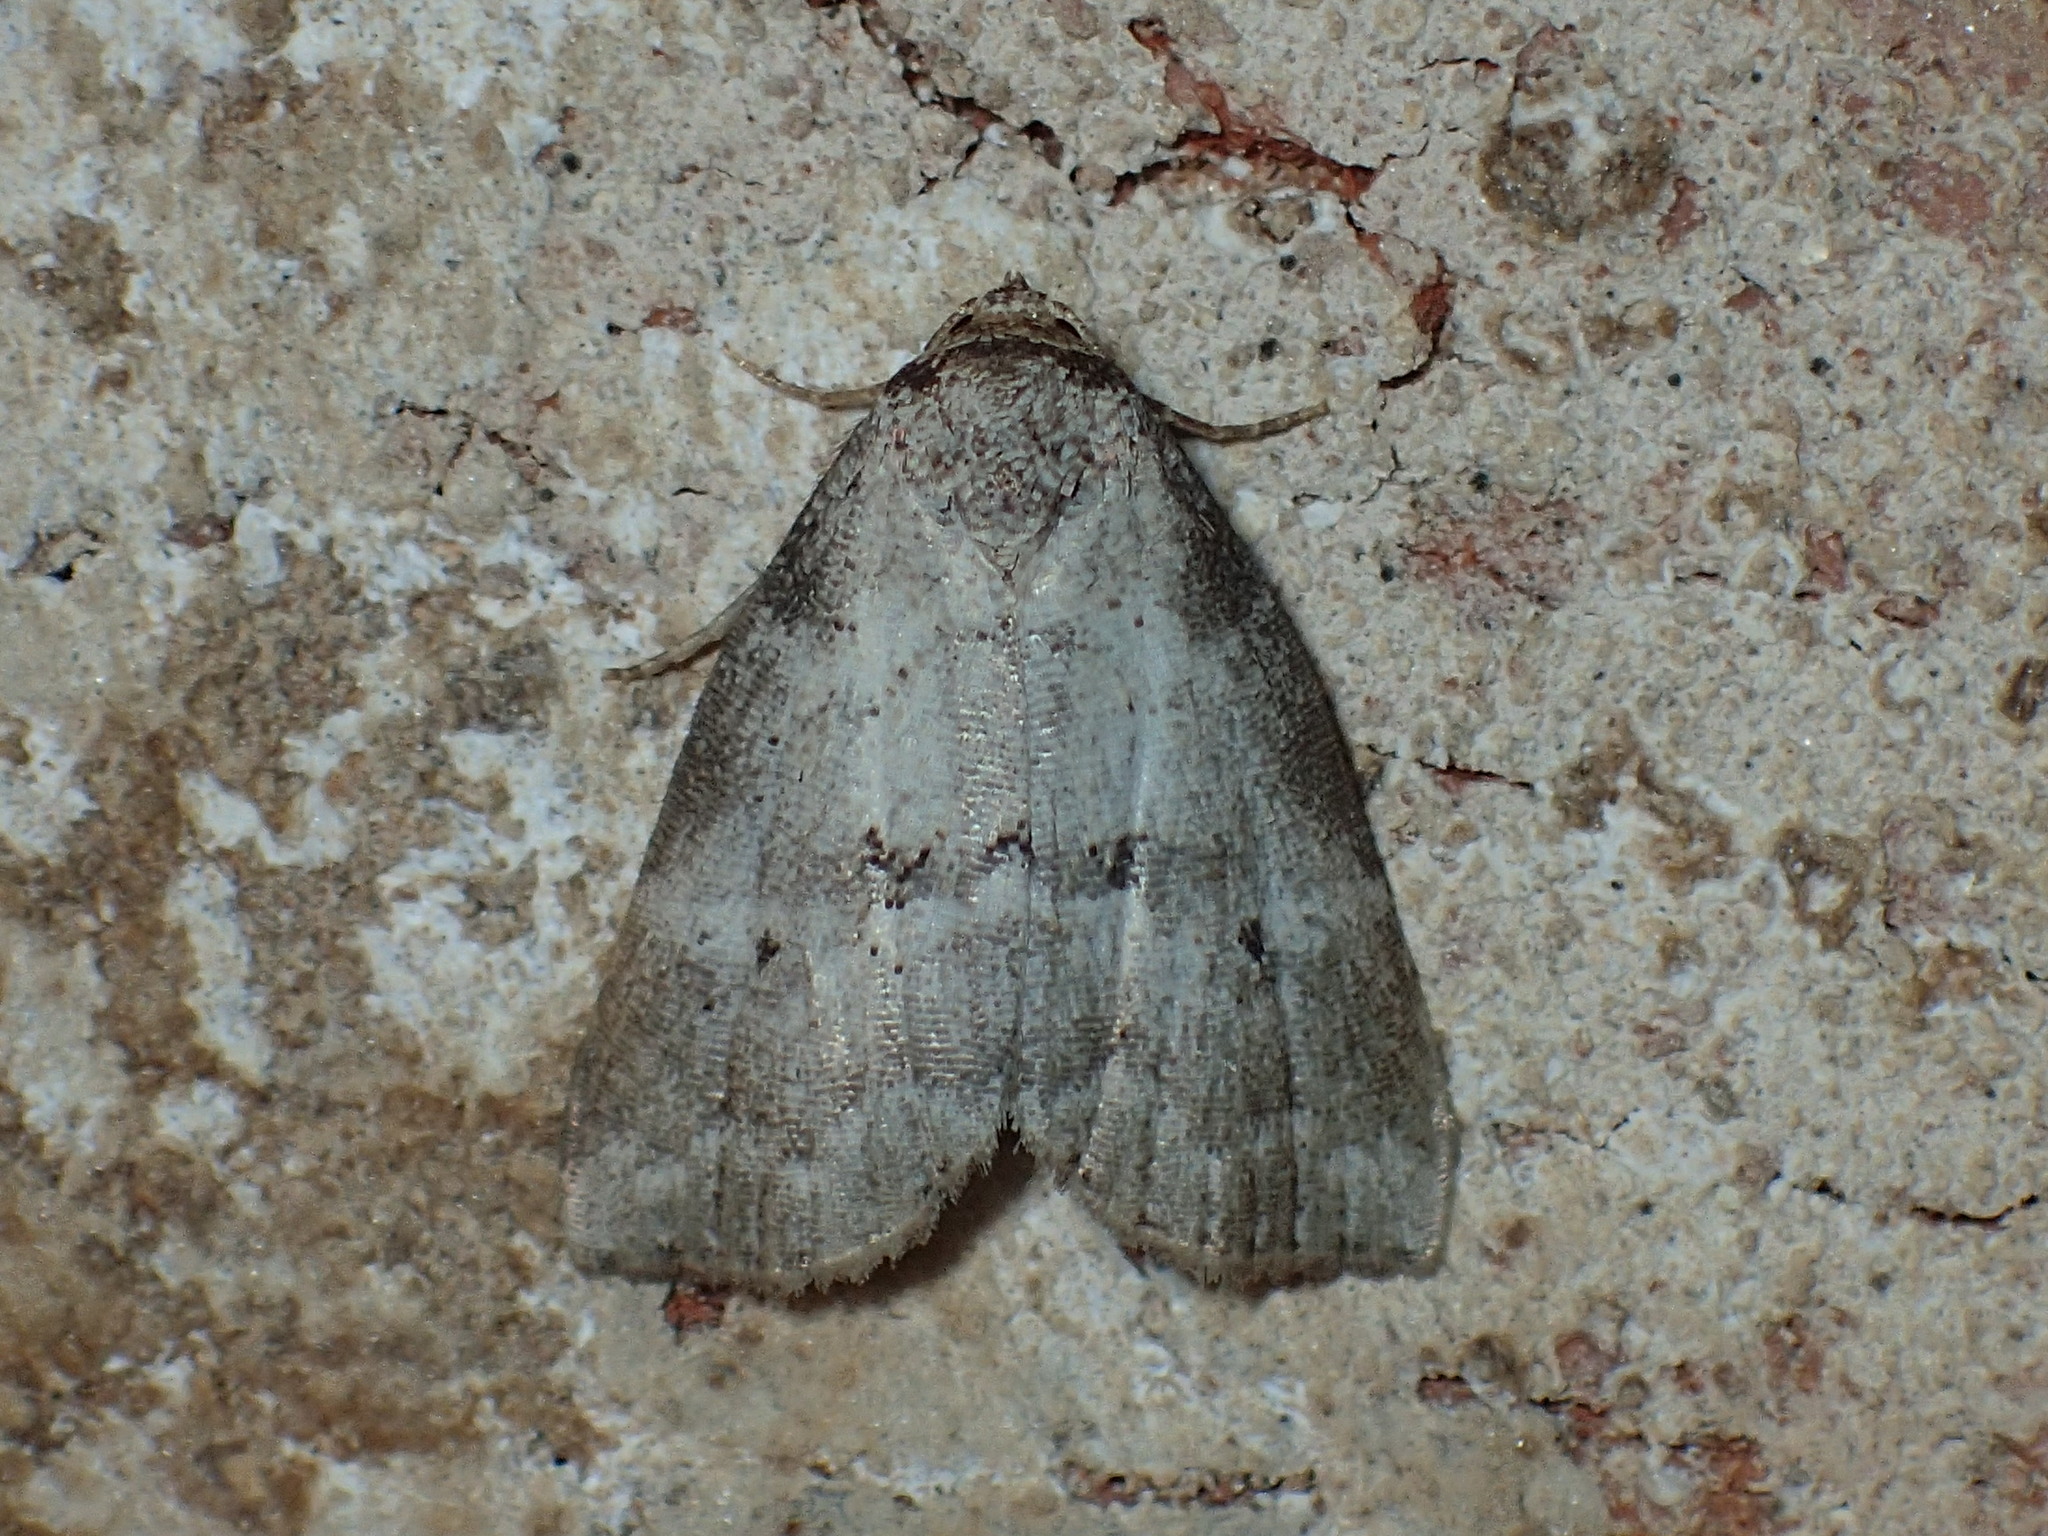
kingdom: Animalia
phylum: Arthropoda
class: Insecta
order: Lepidoptera
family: Erebidae
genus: Hyperstrotia
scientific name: Hyperstrotia pervertens
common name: Dotted graylet
